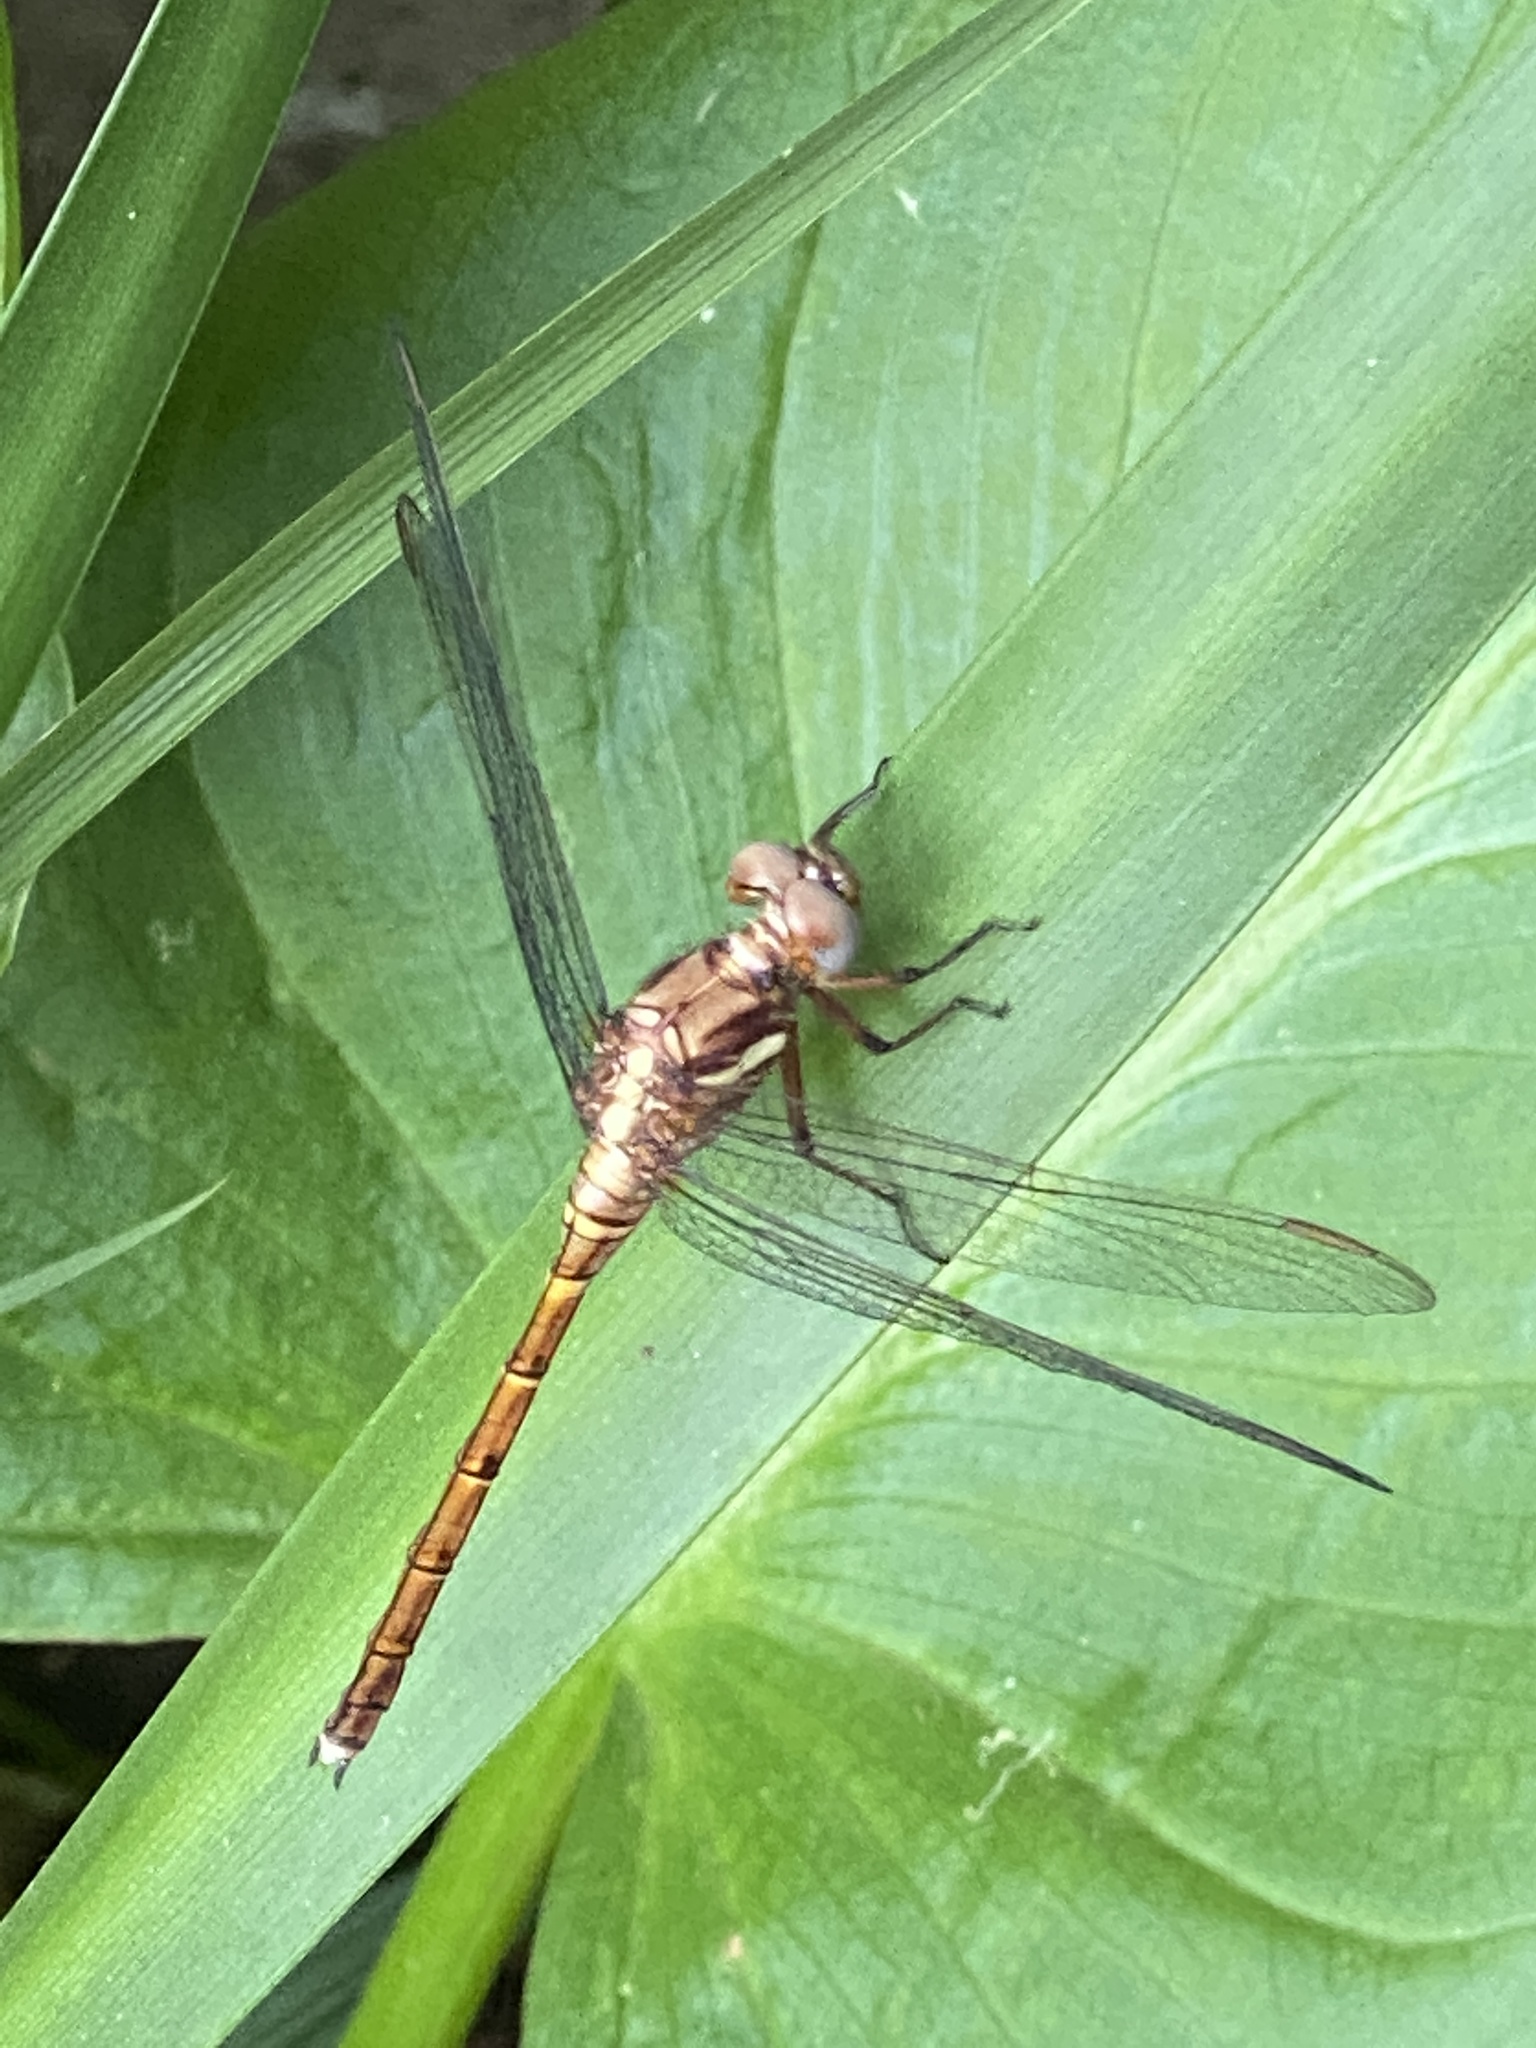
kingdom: Animalia
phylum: Arthropoda
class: Insecta
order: Odonata
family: Libellulidae
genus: Orthetrum
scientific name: Orthetrum julia
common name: Julia skimmer
